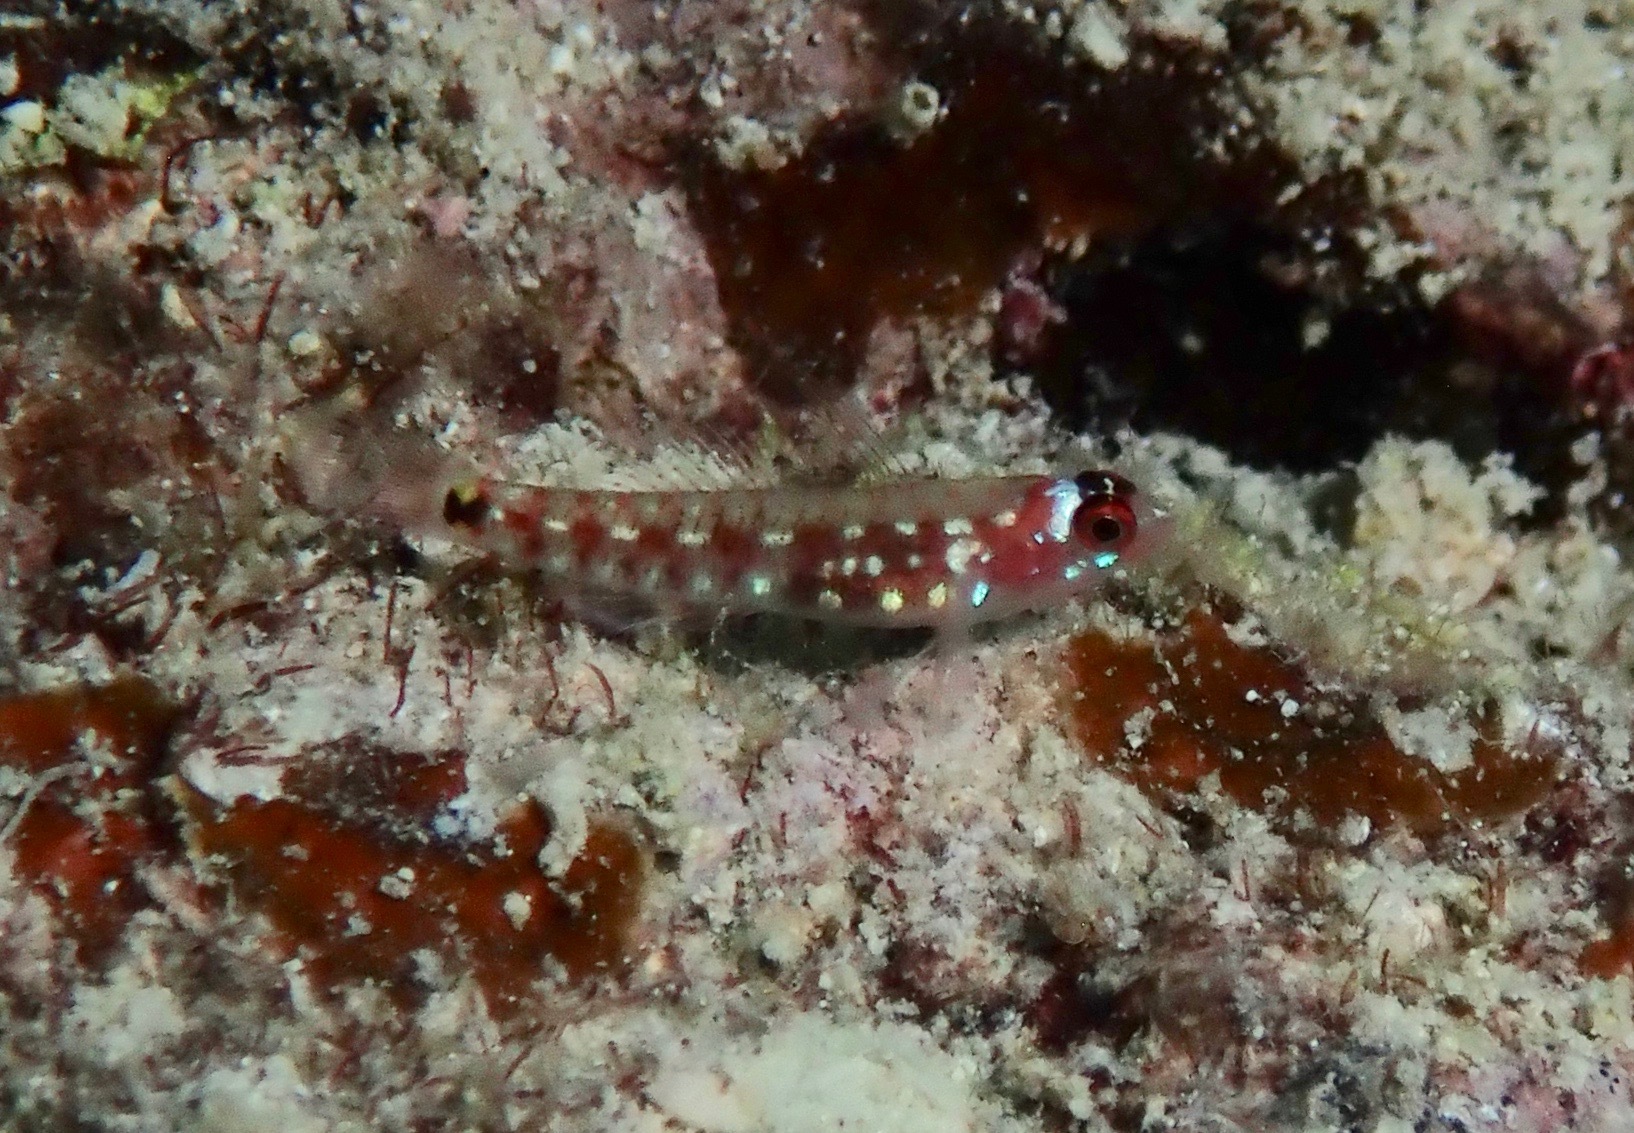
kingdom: Animalia
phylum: Chordata
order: Perciformes
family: Gobiidae
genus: Eviota
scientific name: Eviota cometa
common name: Comet pygmy goby
